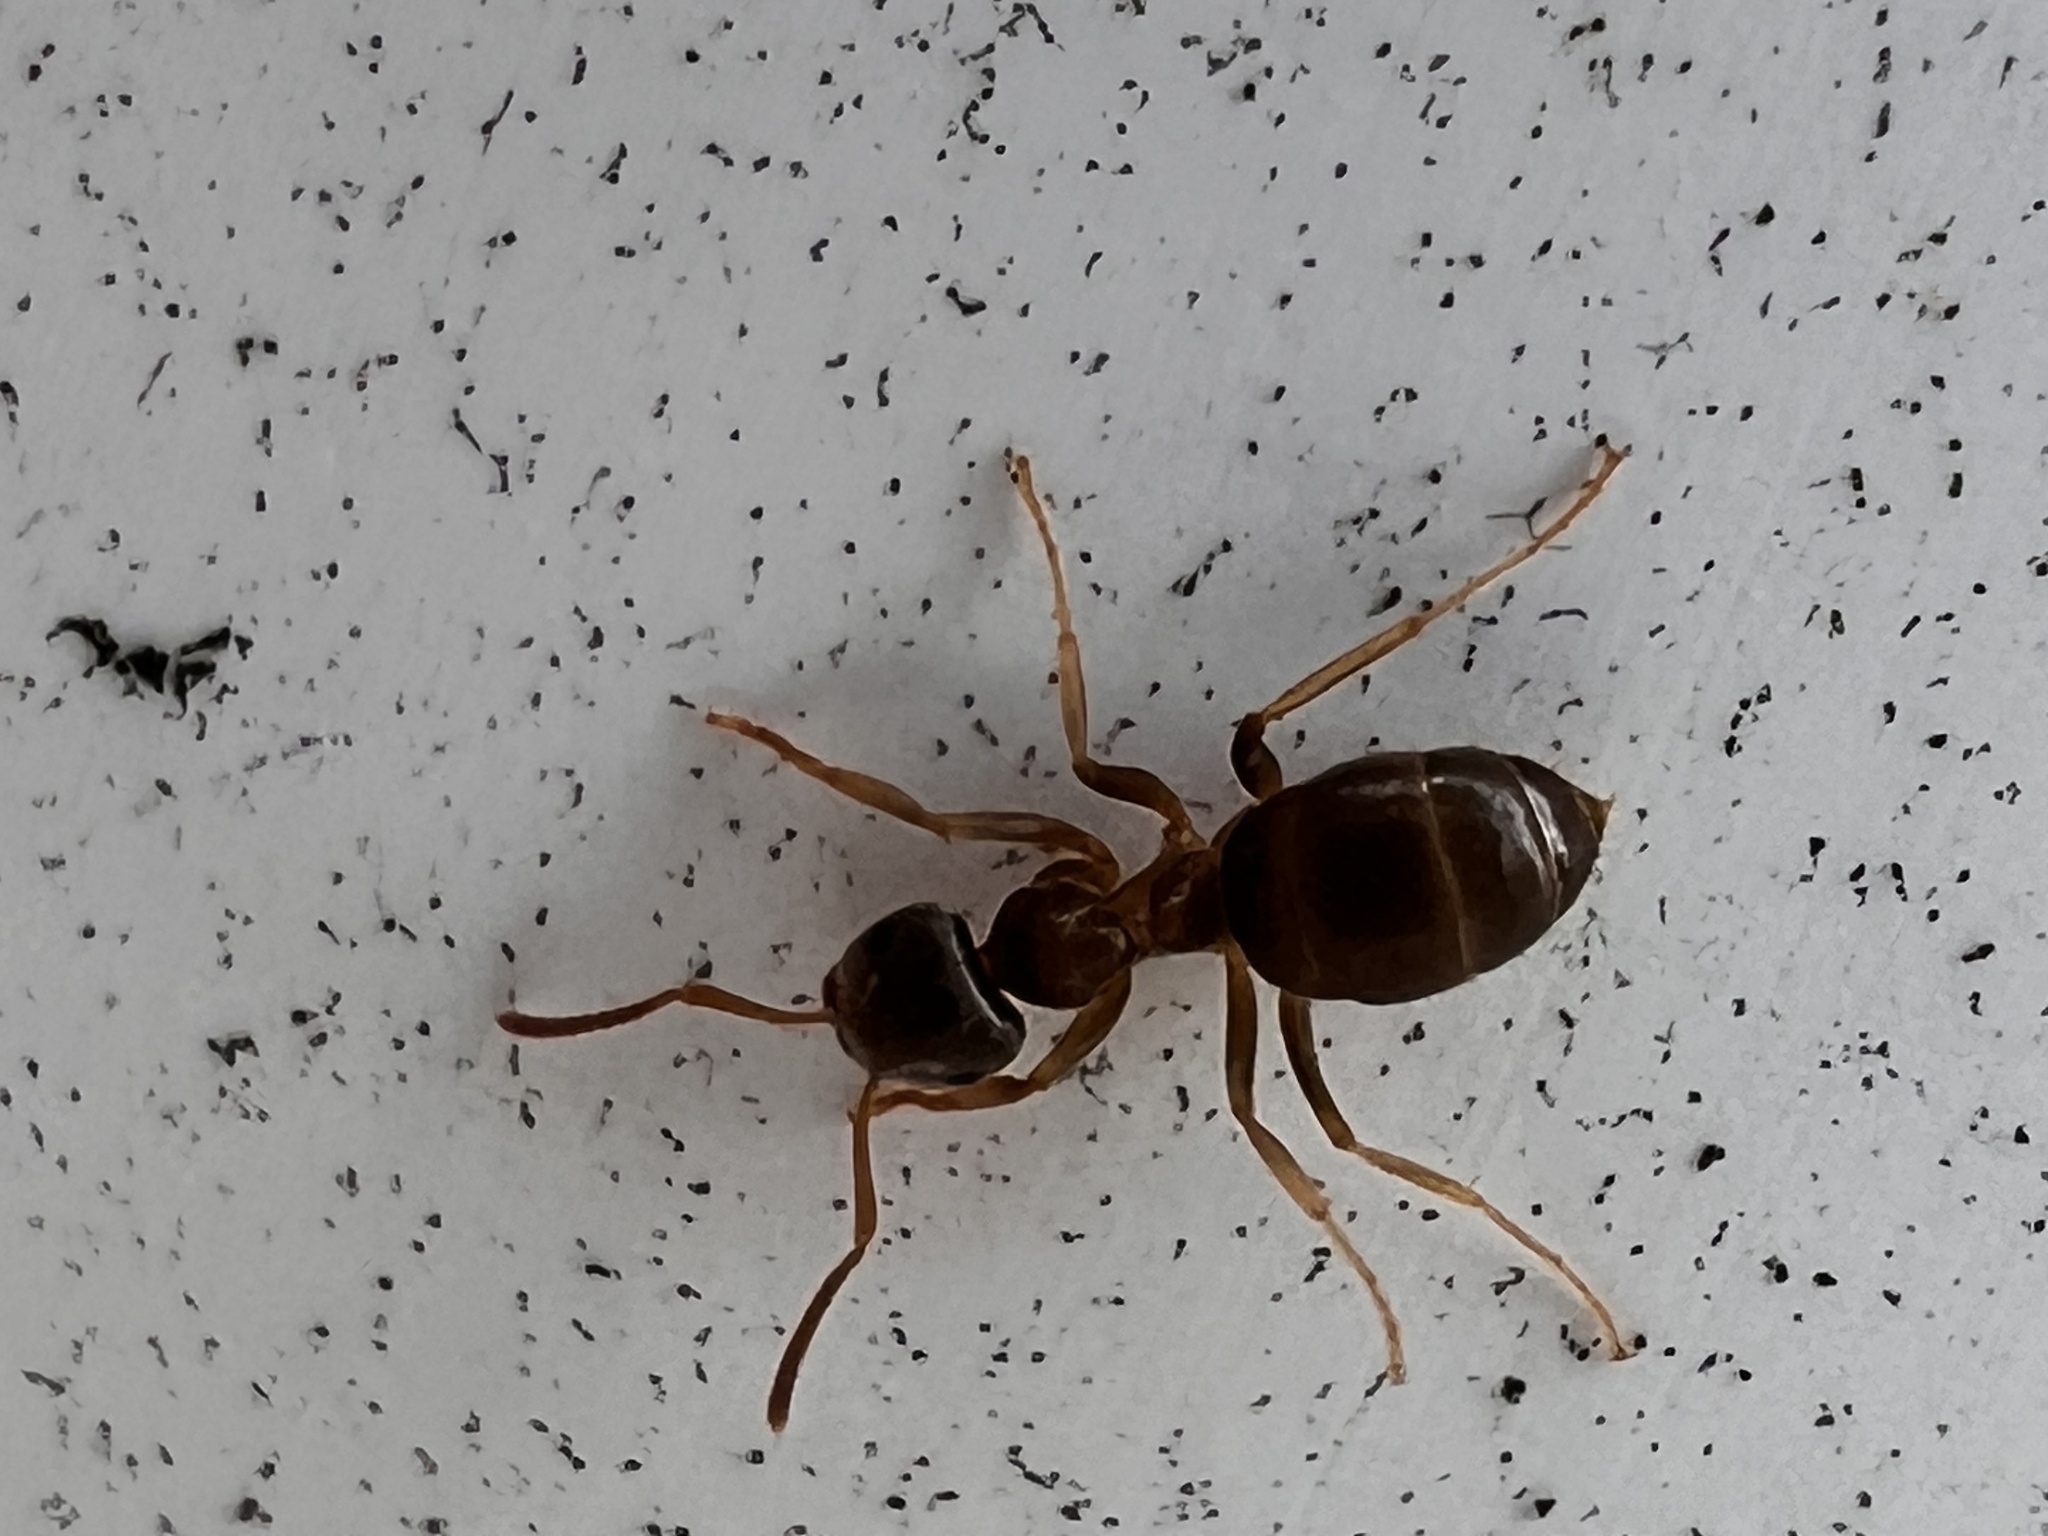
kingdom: Animalia
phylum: Arthropoda
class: Insecta
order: Hymenoptera
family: Formicidae
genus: Lasius
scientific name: Lasius neoniger
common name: Turfgrass ant
